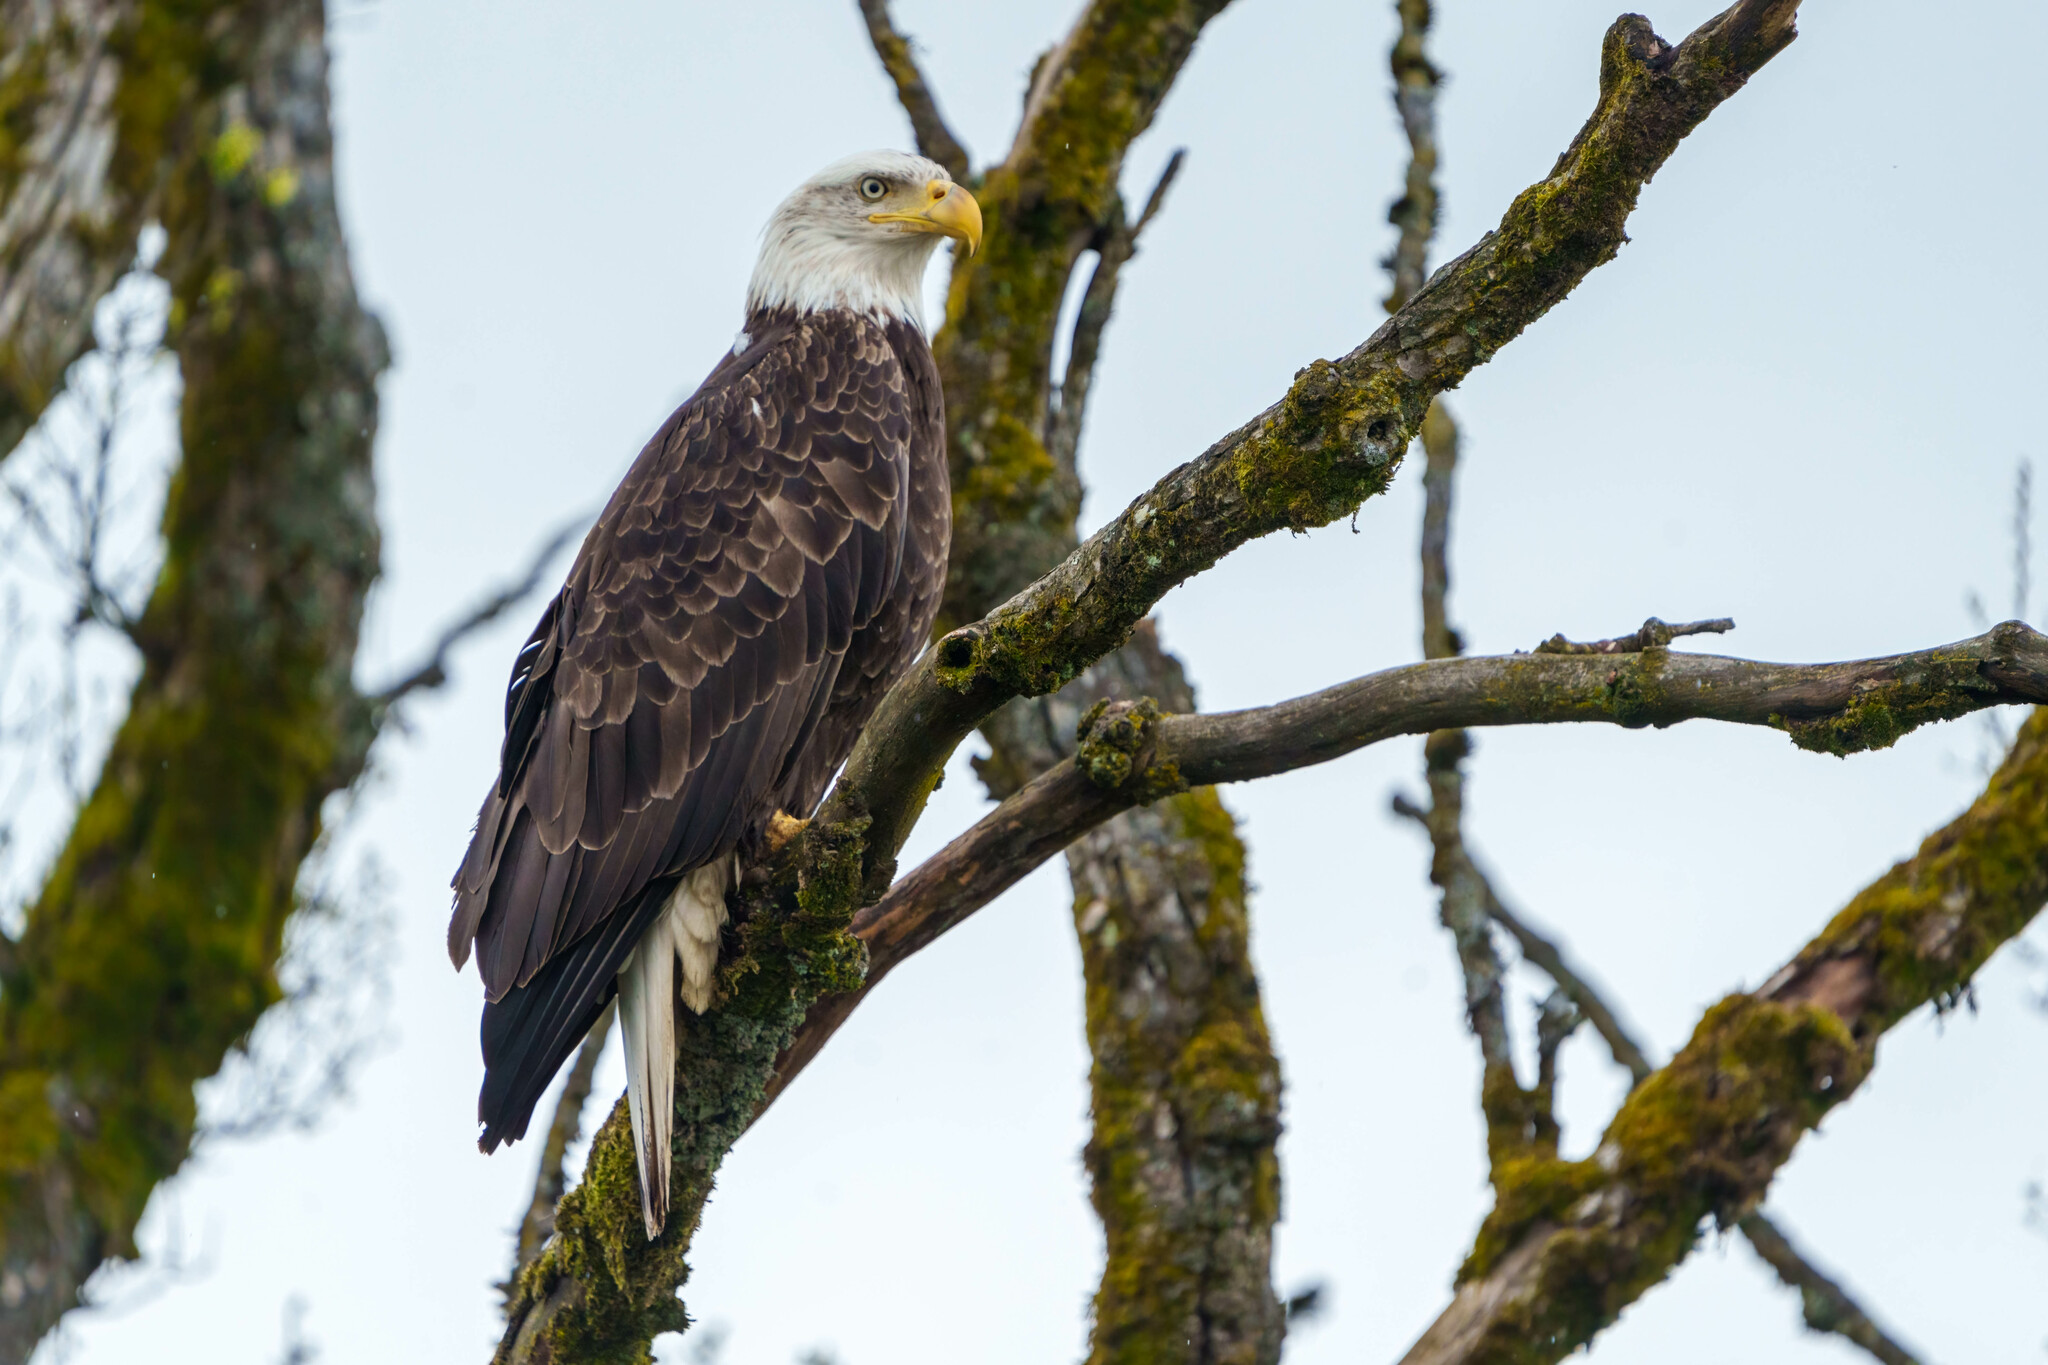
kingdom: Animalia
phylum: Chordata
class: Aves
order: Accipitriformes
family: Accipitridae
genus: Haliaeetus
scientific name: Haliaeetus leucocephalus
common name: Bald eagle
